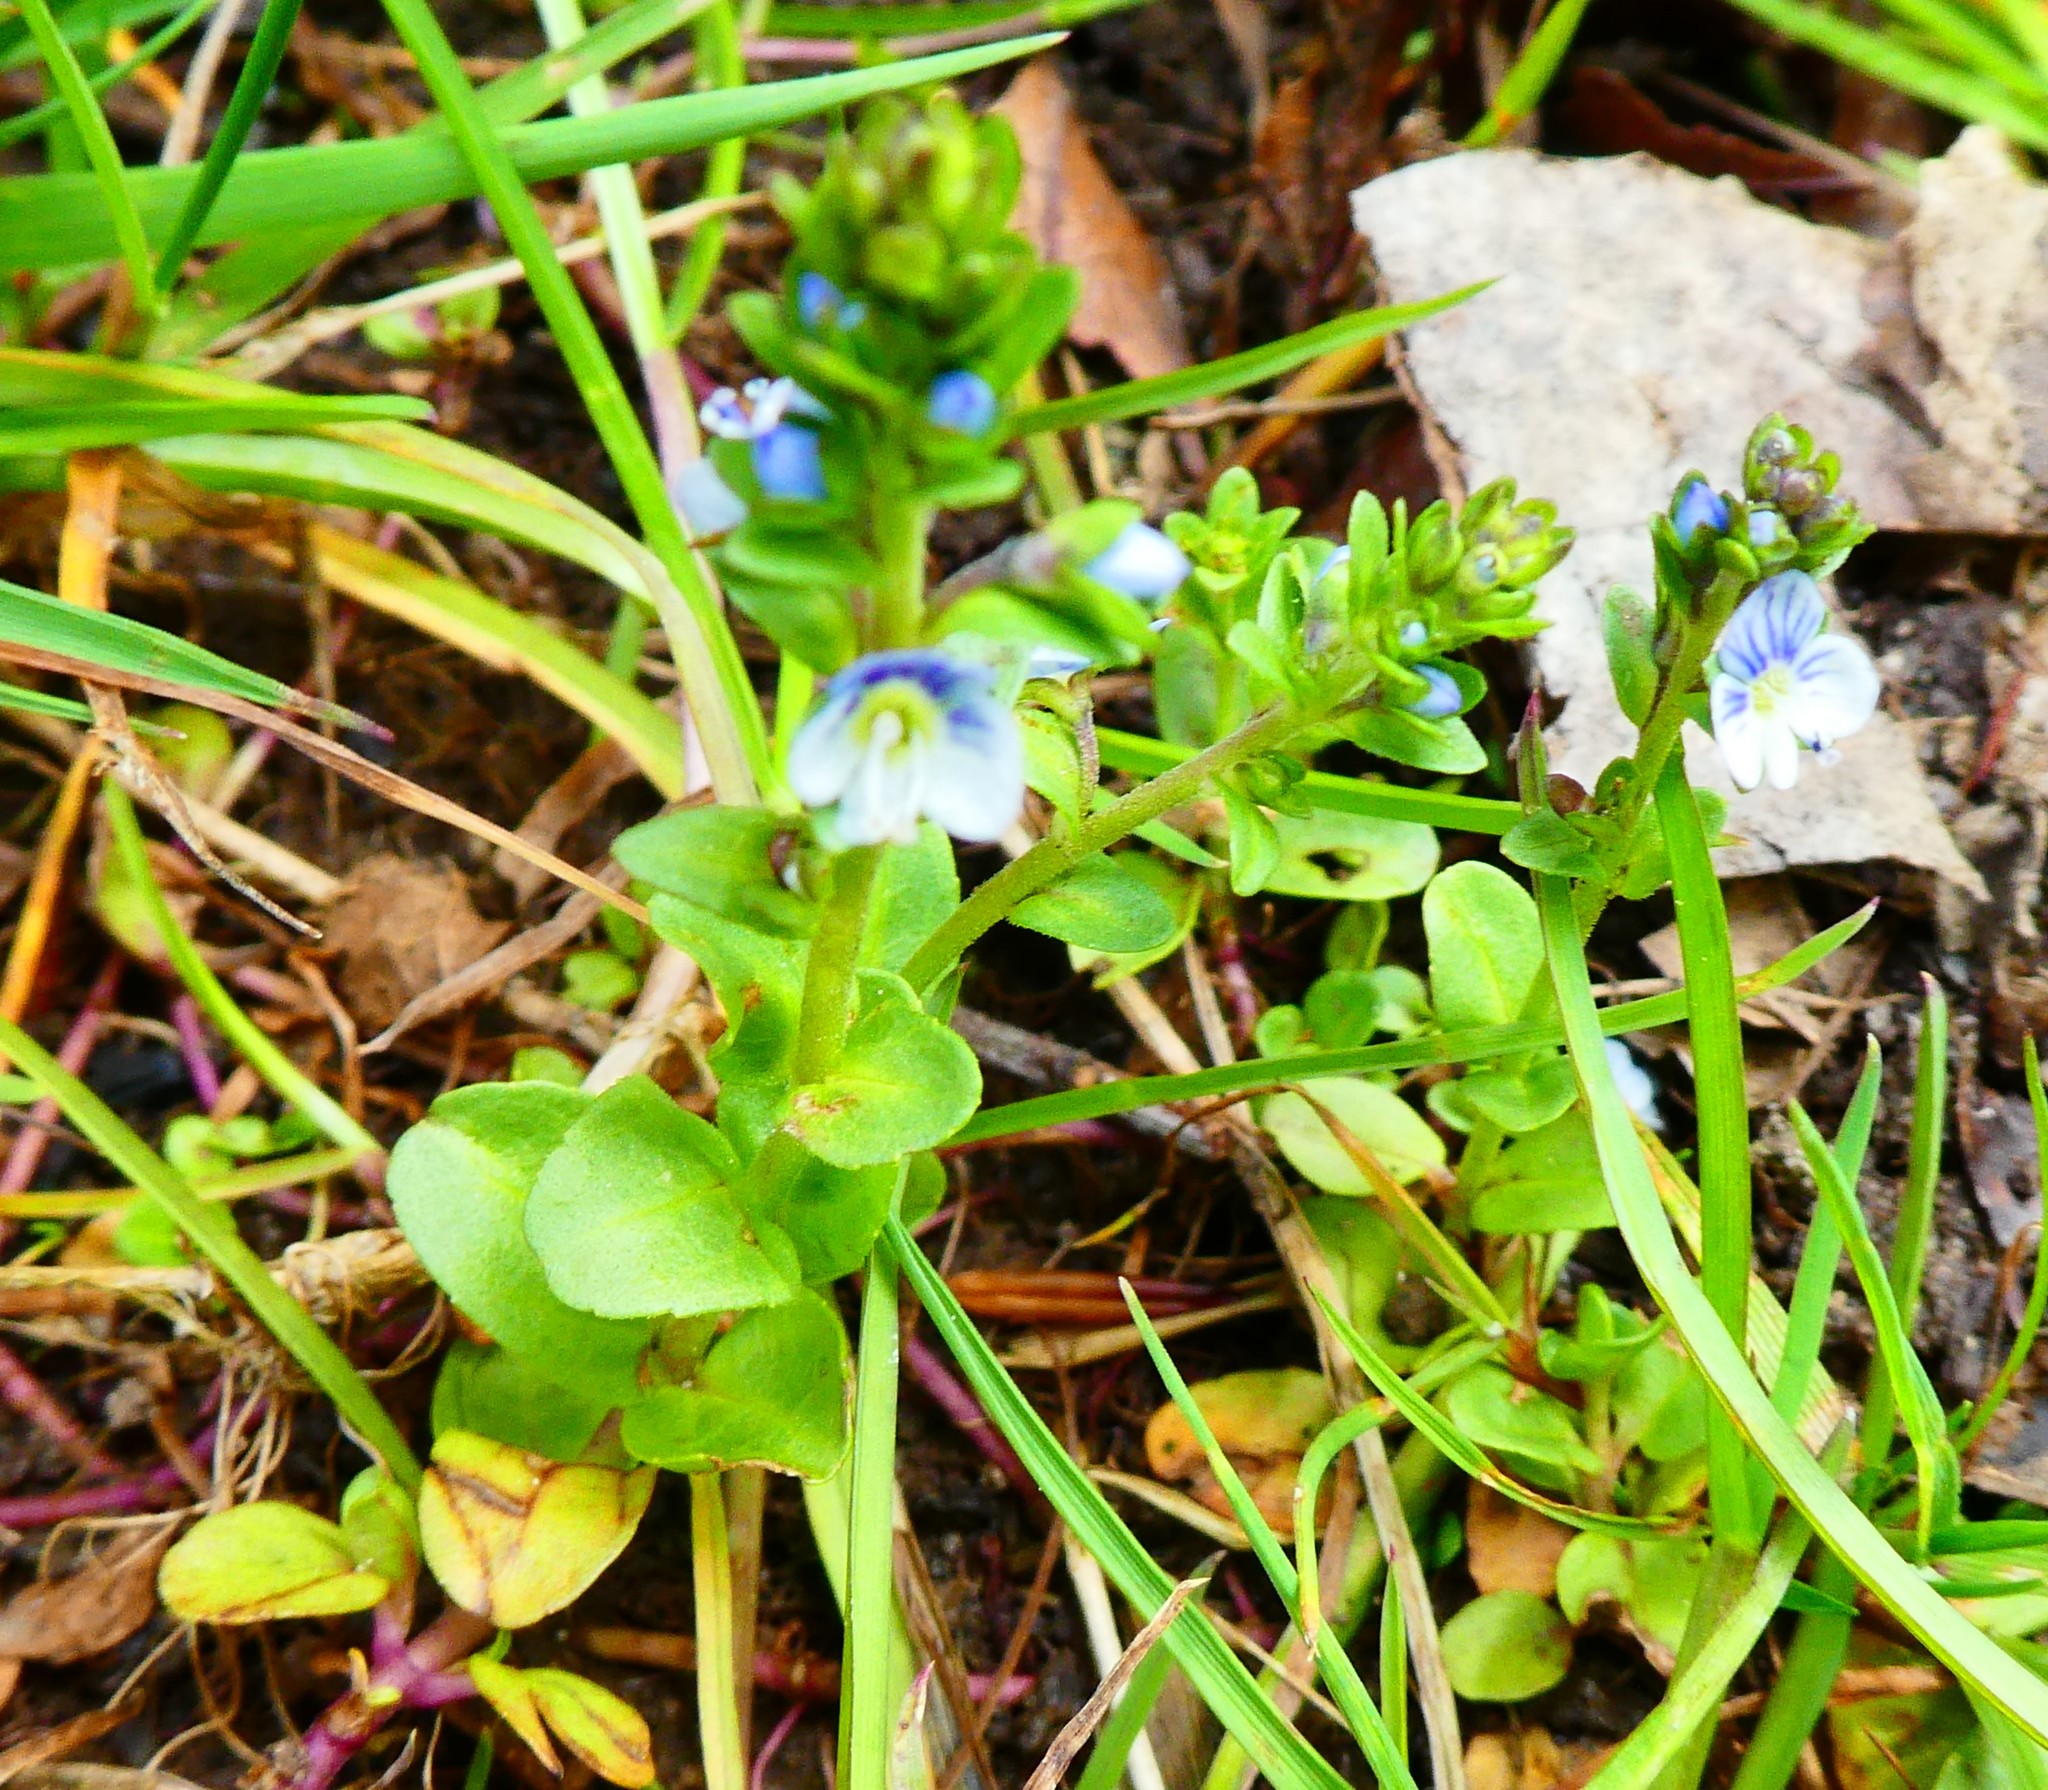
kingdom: Plantae
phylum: Tracheophyta
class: Magnoliopsida
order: Lamiales
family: Plantaginaceae
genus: Veronica
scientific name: Veronica serpyllifolia
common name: Thyme-leaved speedwell
